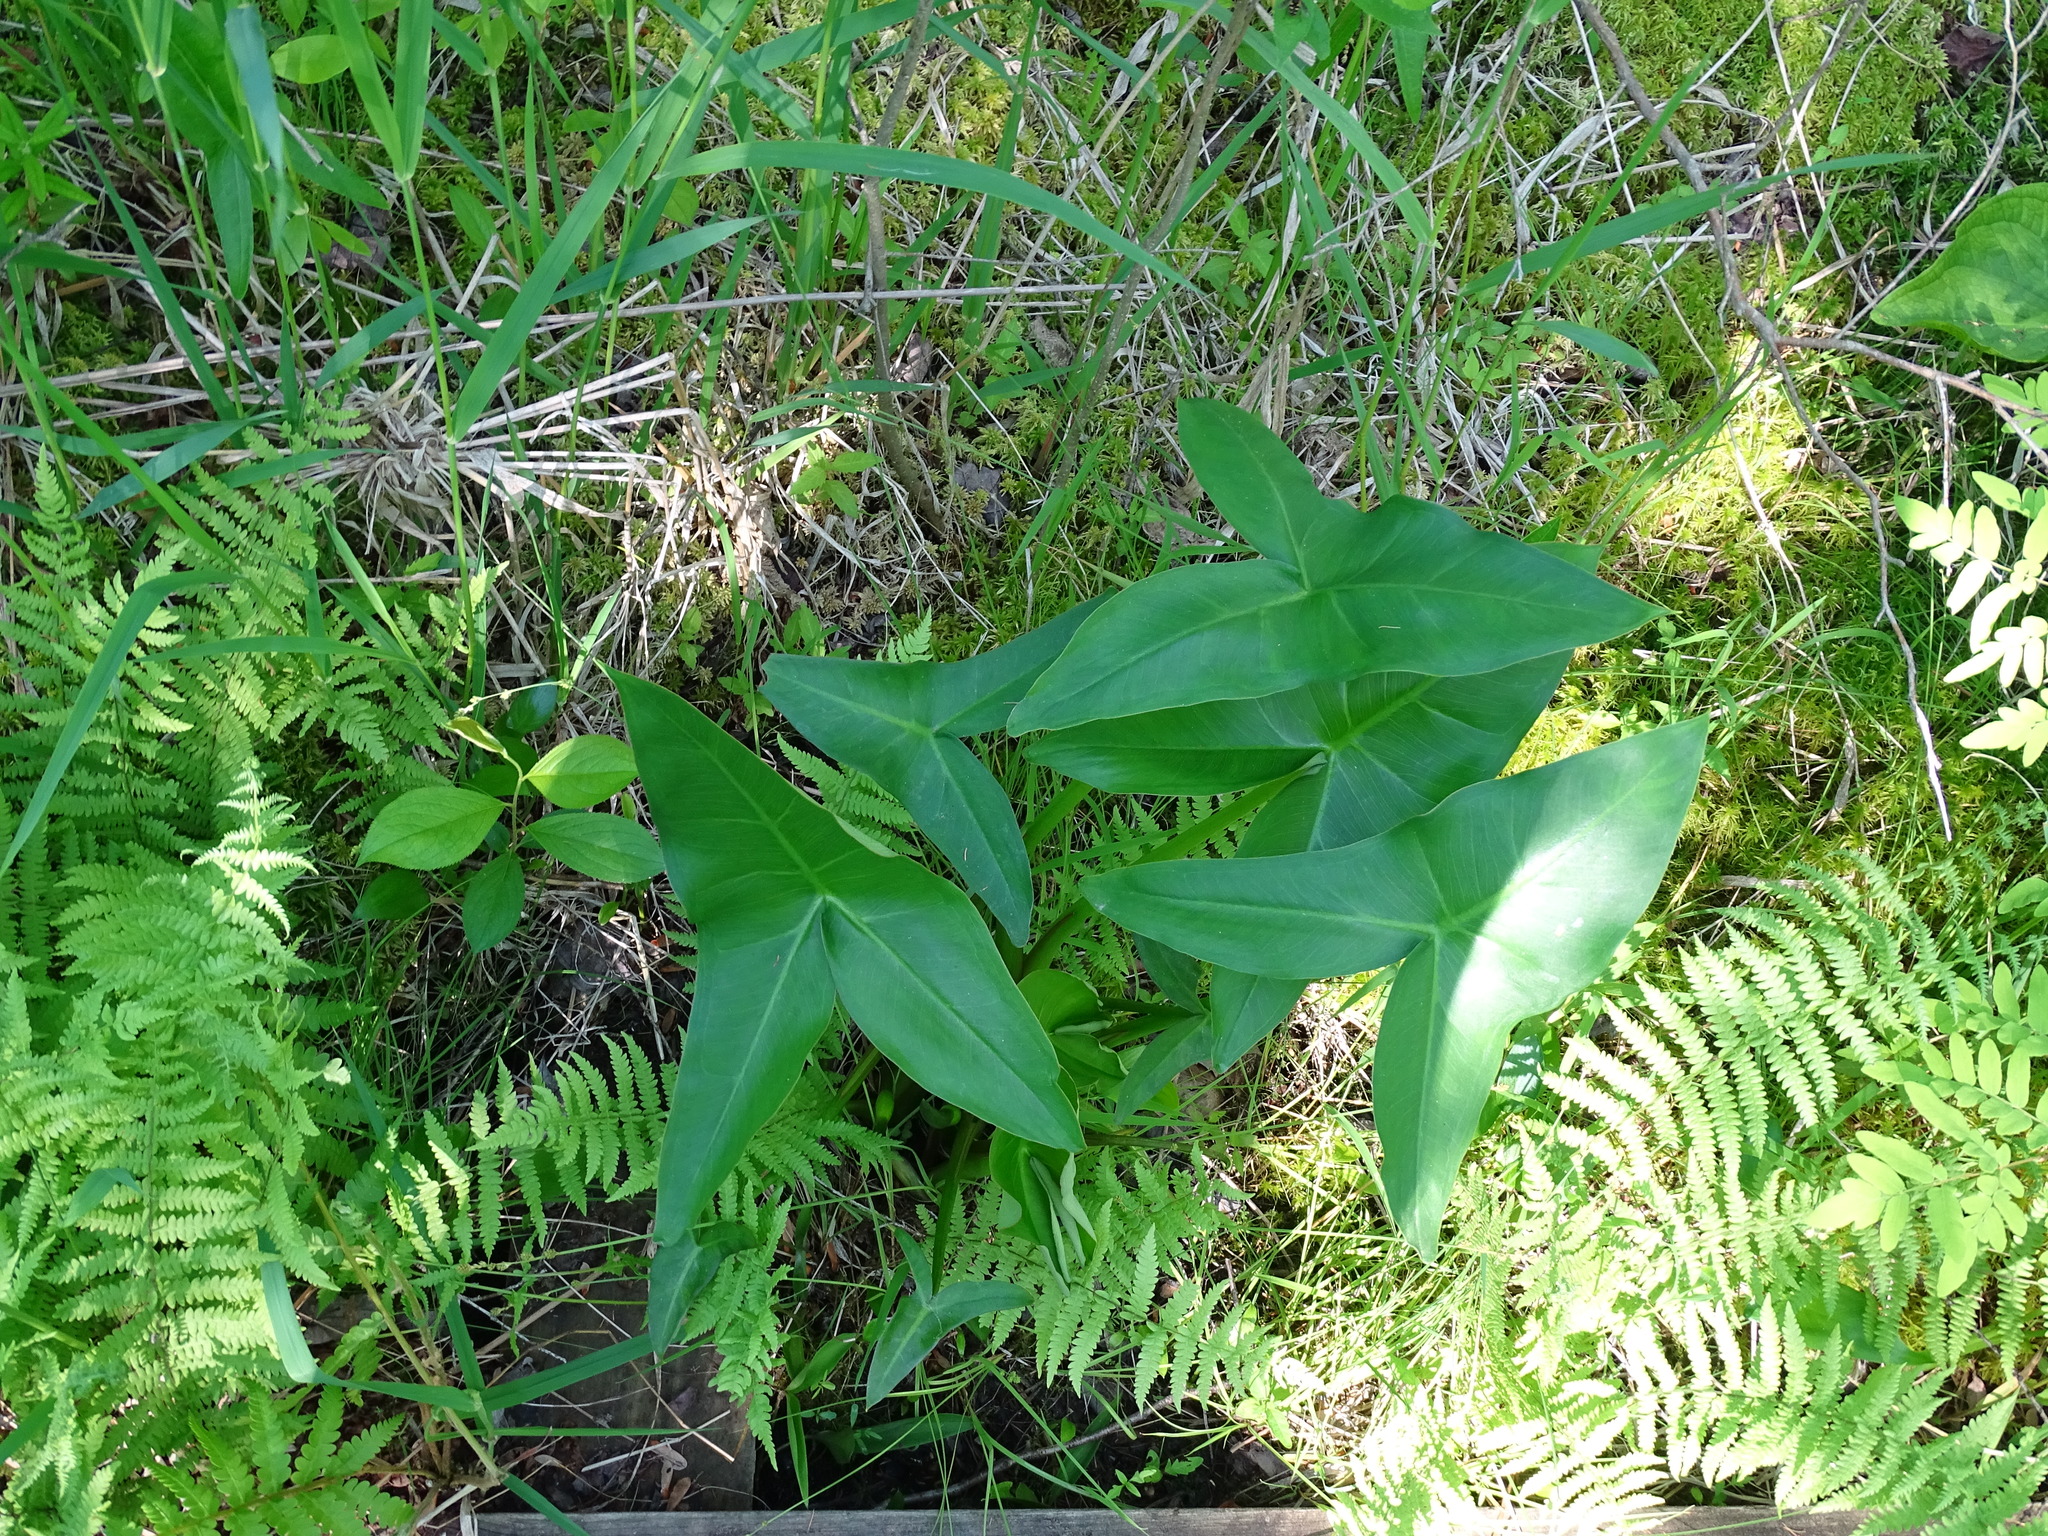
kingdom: Plantae
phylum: Tracheophyta
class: Liliopsida
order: Alismatales
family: Araceae
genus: Peltandra
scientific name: Peltandra virginica
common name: Arrow arum
